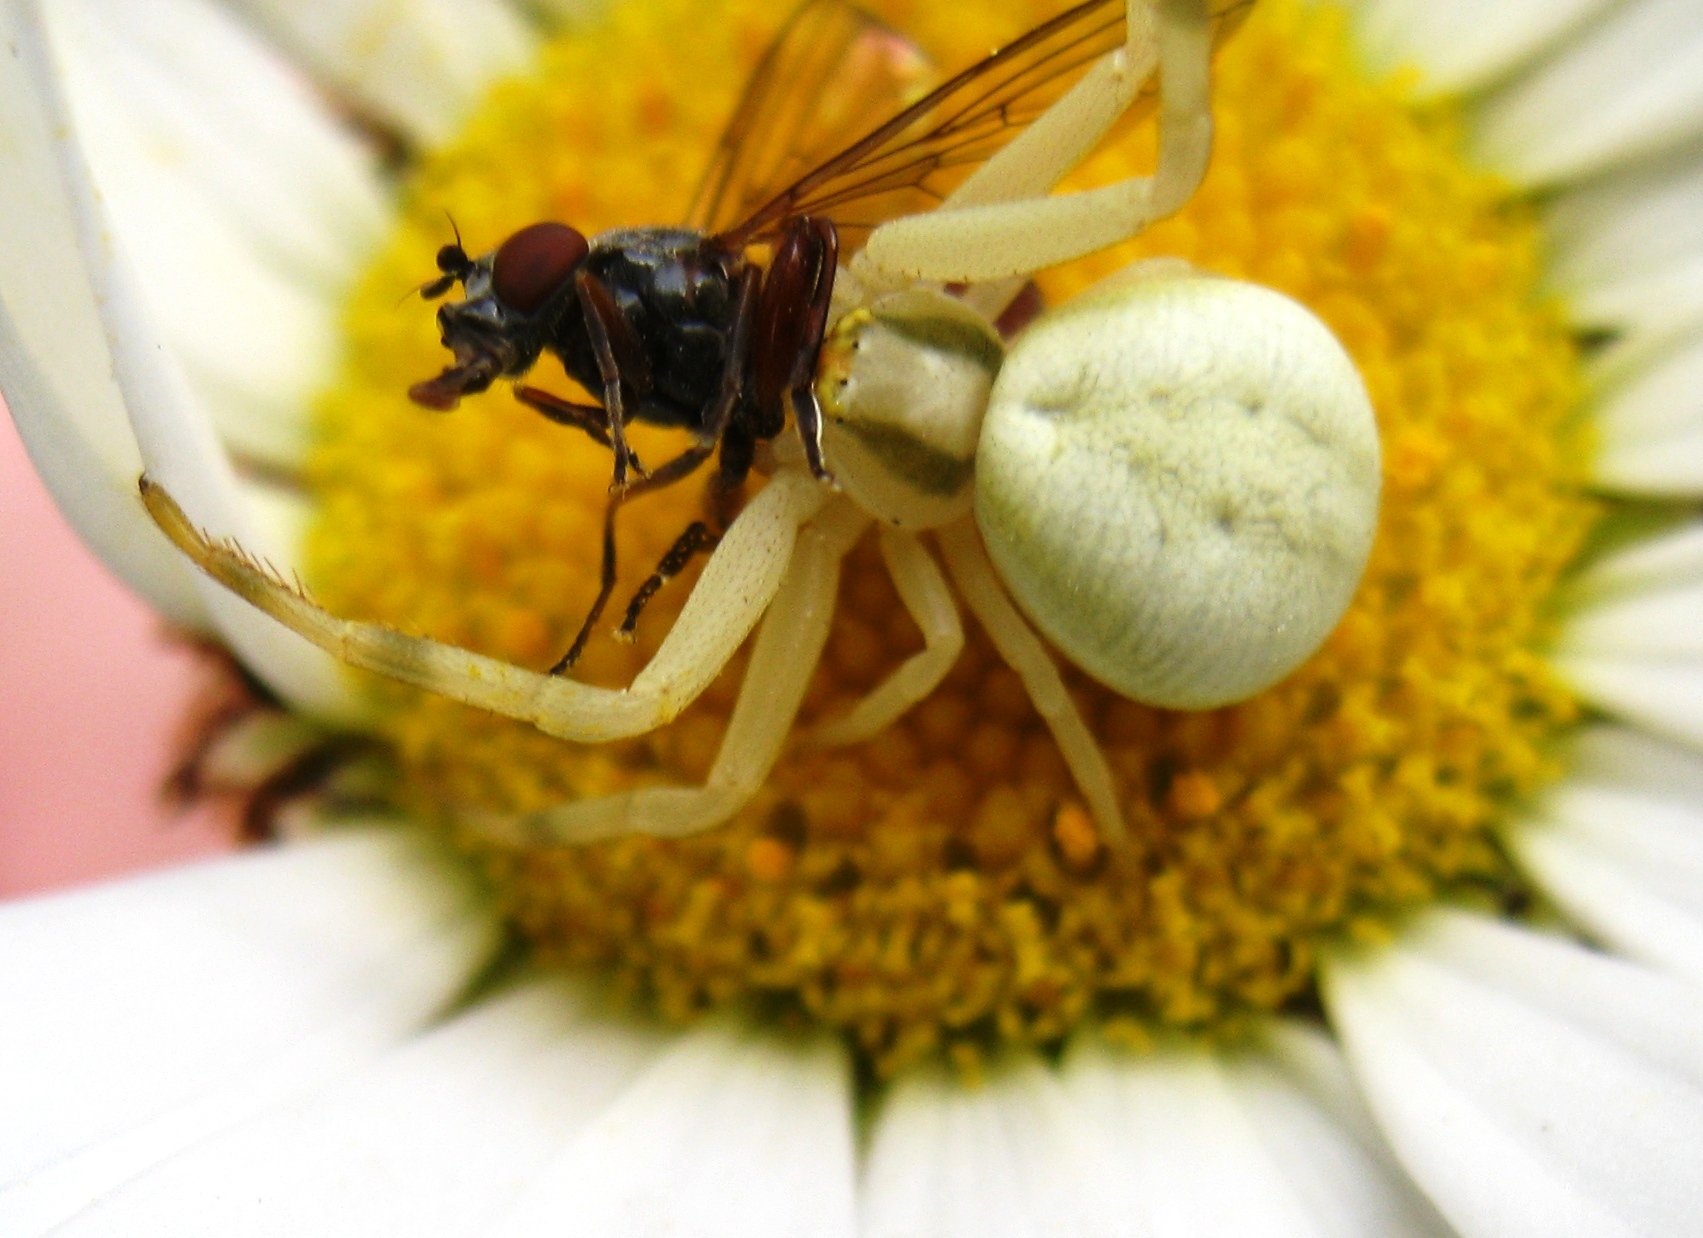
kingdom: Animalia
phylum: Arthropoda
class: Arachnida
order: Araneae
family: Thomisidae
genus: Misumena
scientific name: Misumena vatia
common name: Goldenrod crab spider
